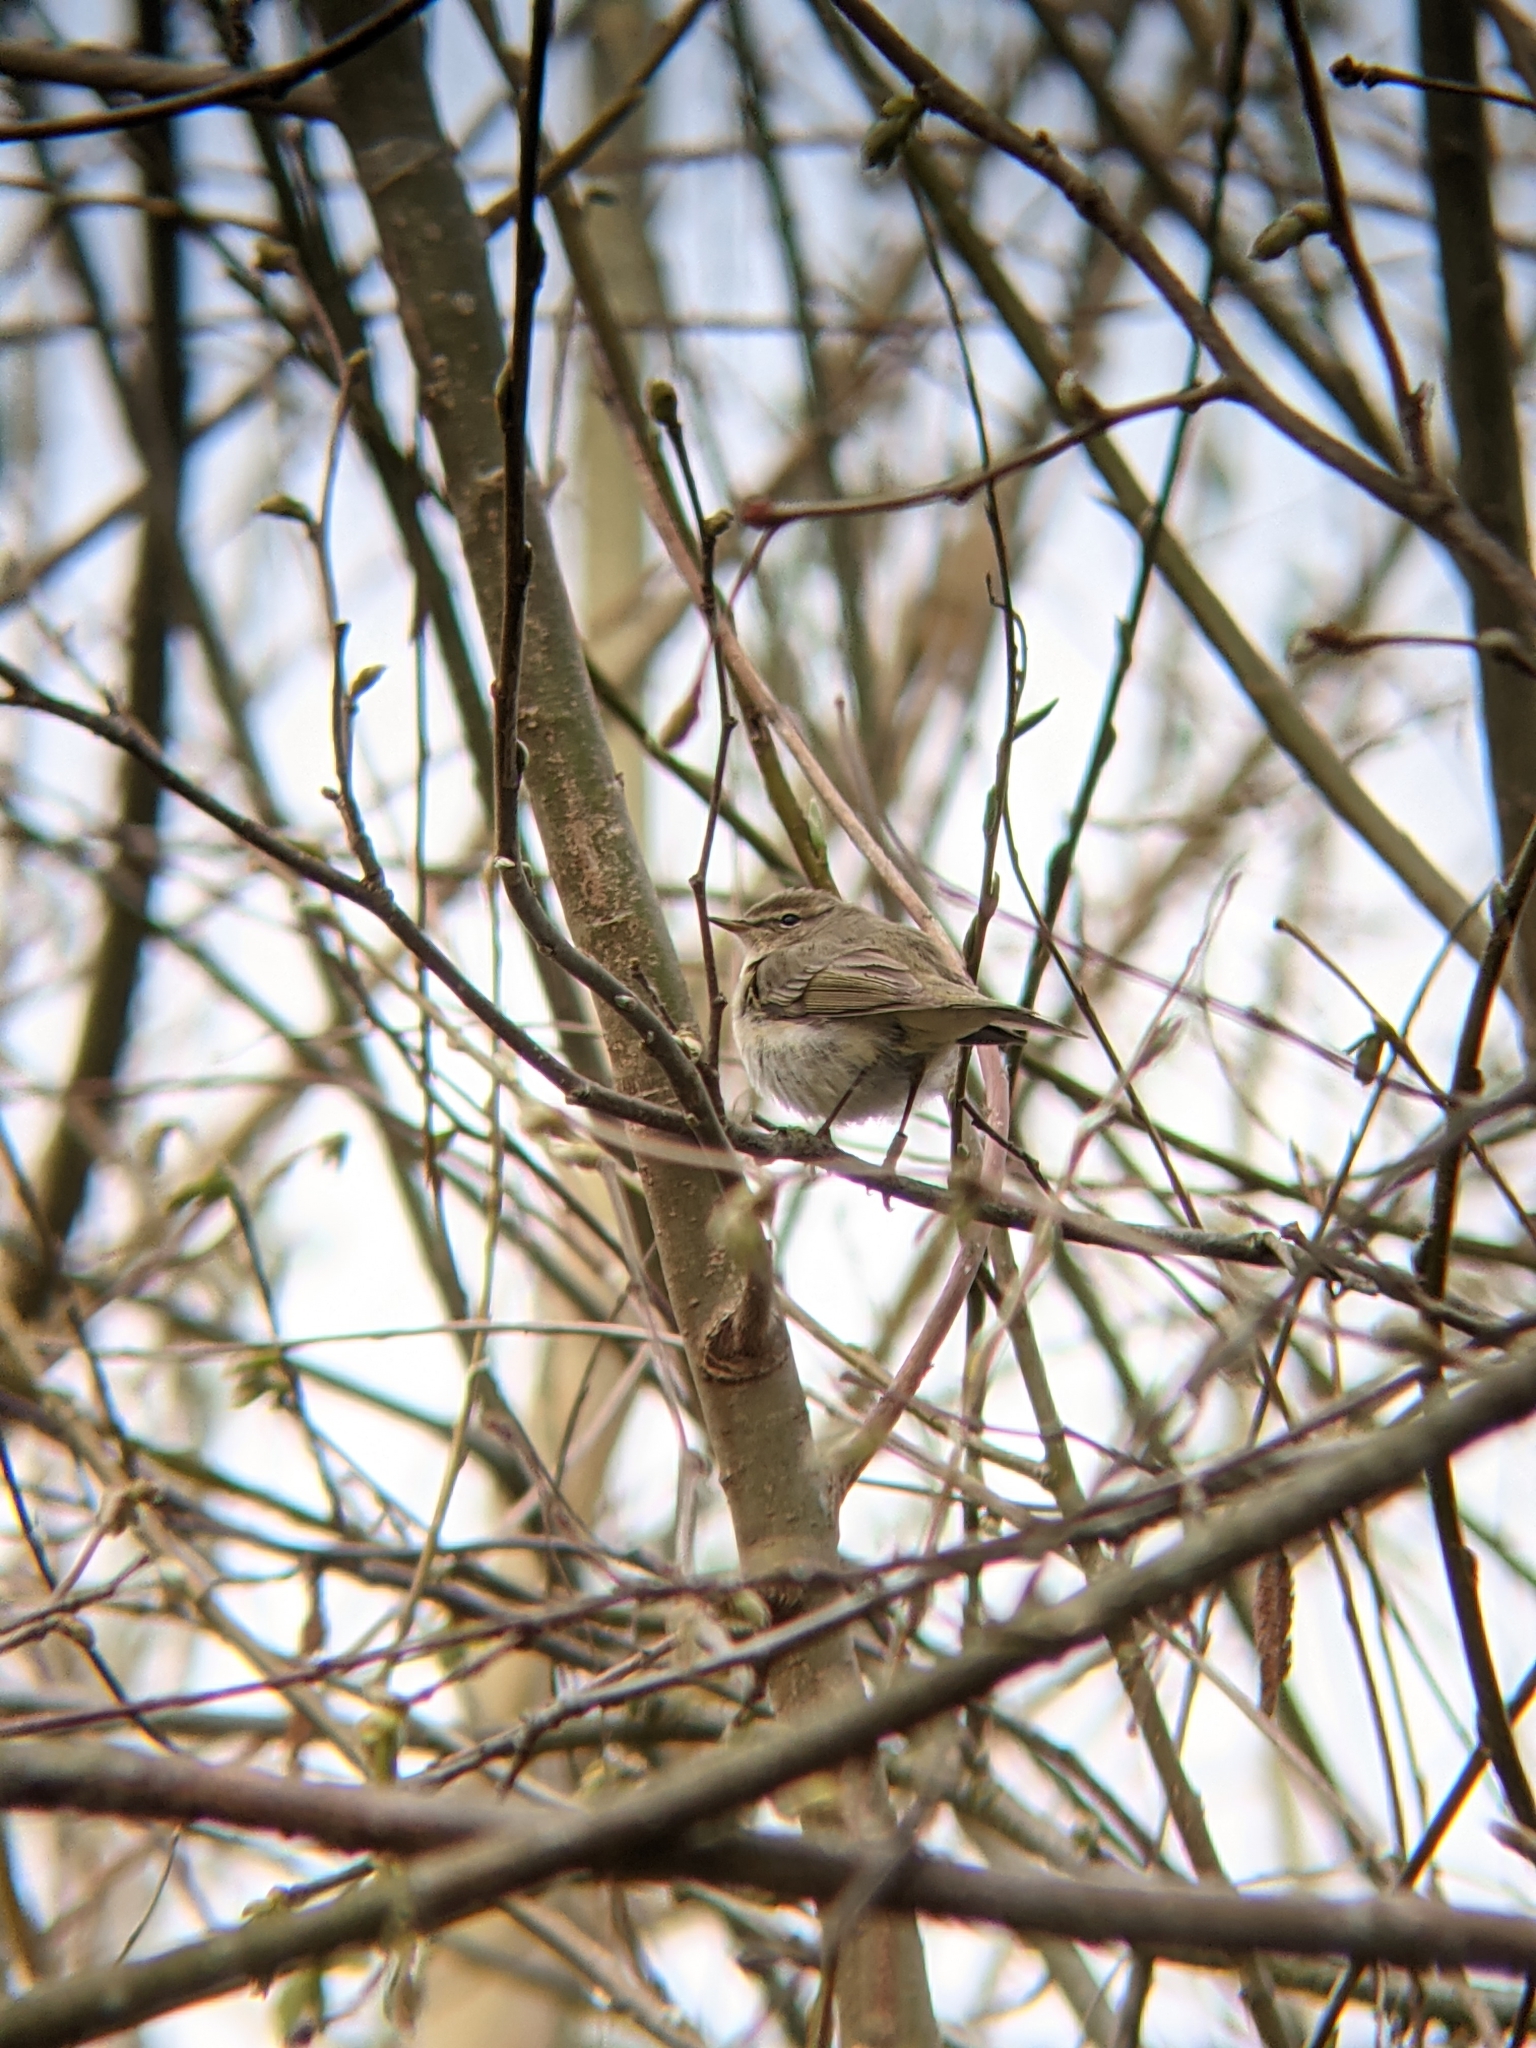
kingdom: Animalia
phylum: Chordata
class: Aves
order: Passeriformes
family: Phylloscopidae
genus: Phylloscopus
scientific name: Phylloscopus collybita
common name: Common chiffchaff
